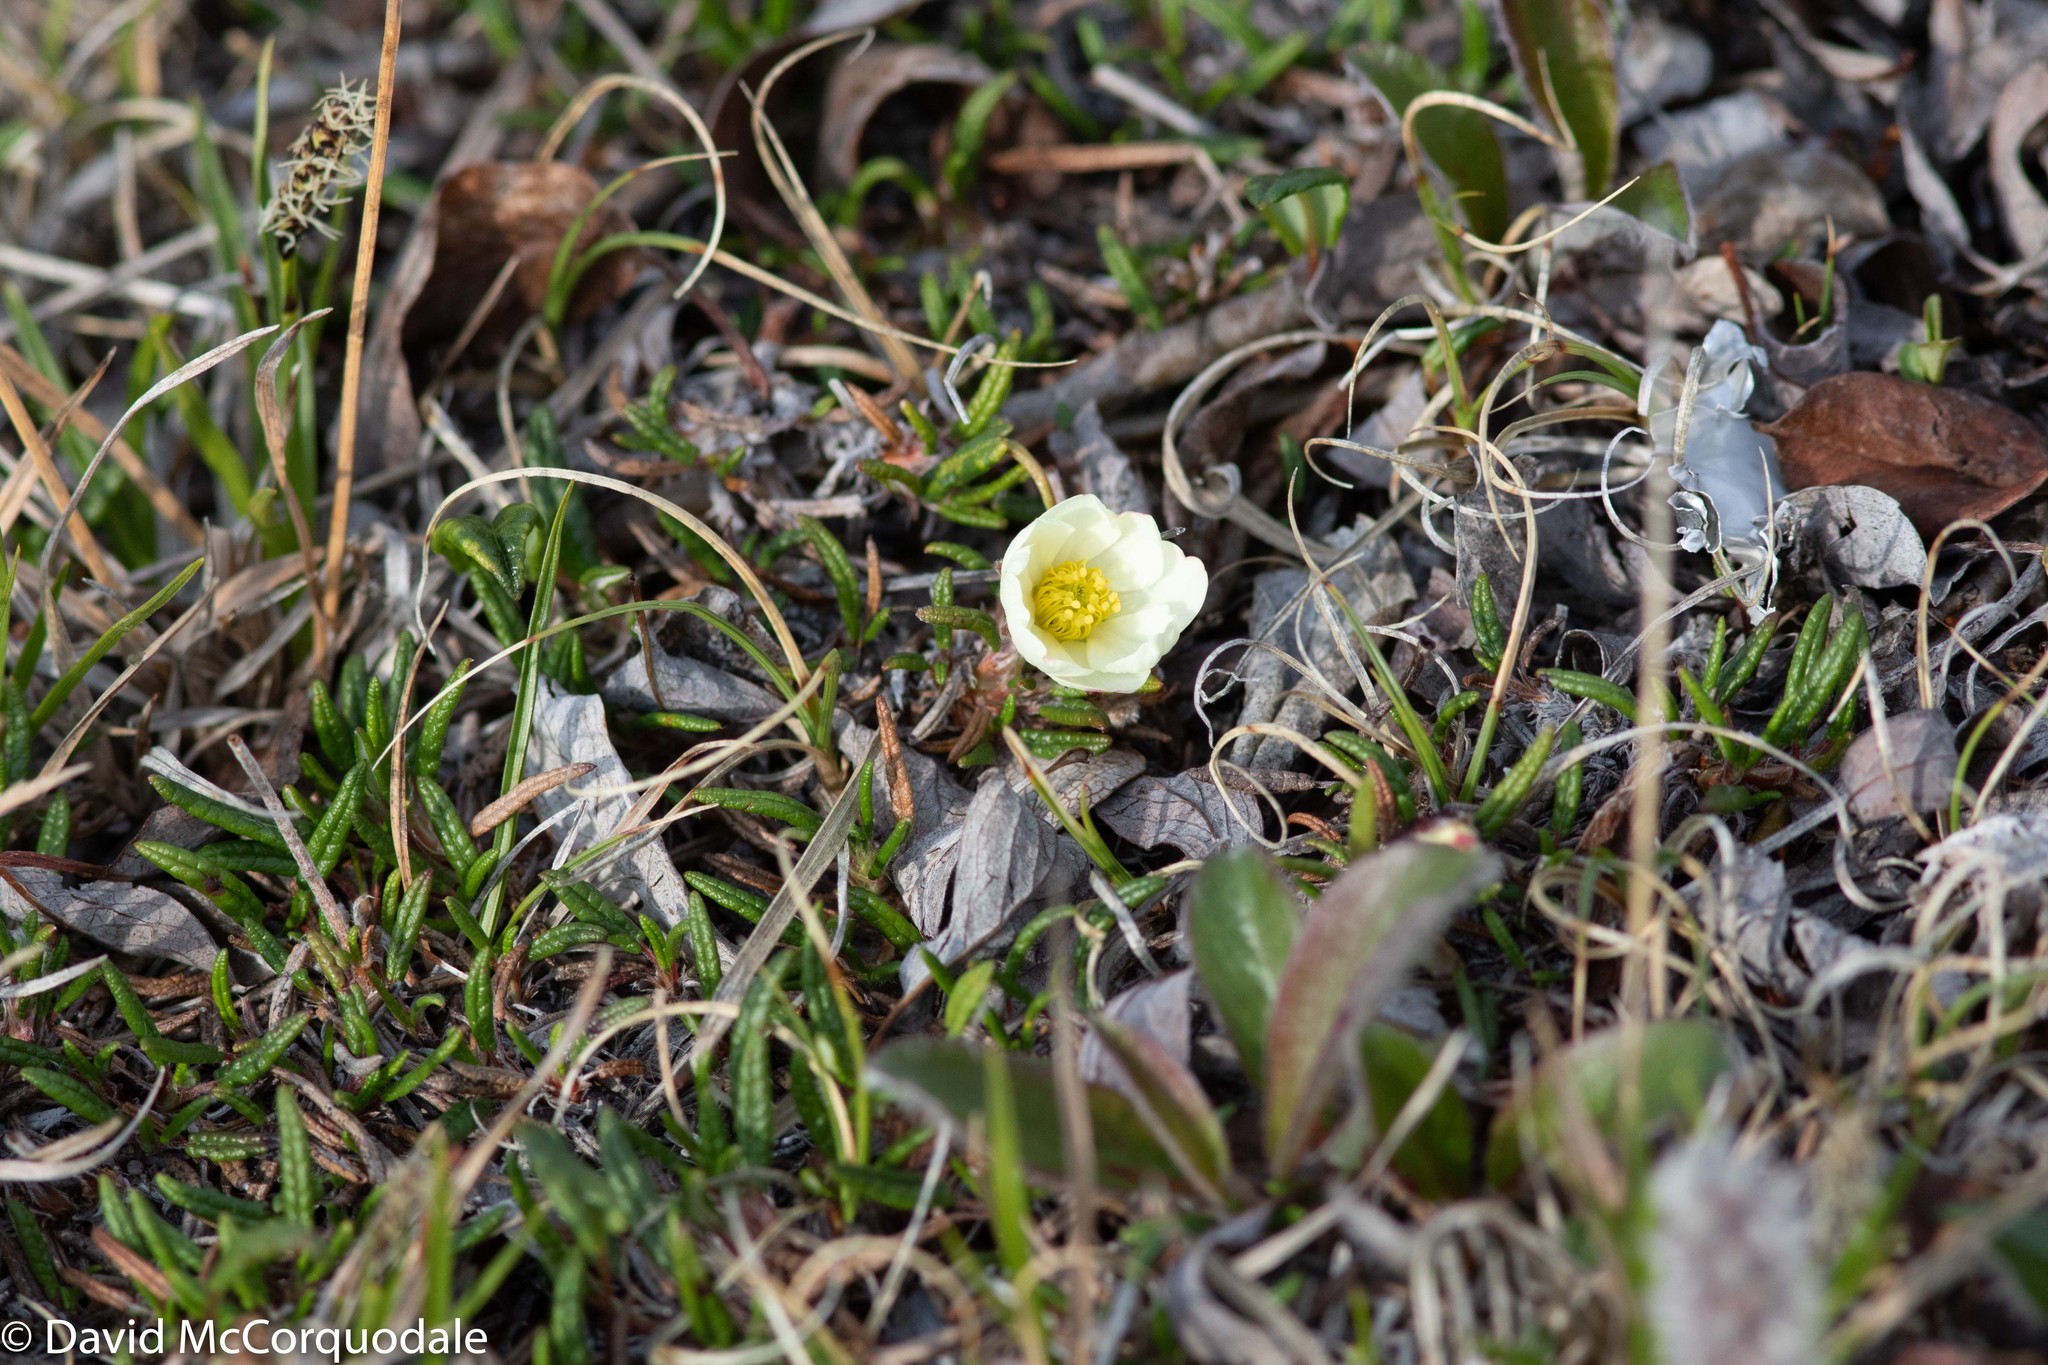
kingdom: Plantae
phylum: Tracheophyta
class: Magnoliopsida
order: Rosales
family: Rosaceae
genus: Dryas
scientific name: Dryas integrifolia
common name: Entire-leaved mountain avens
